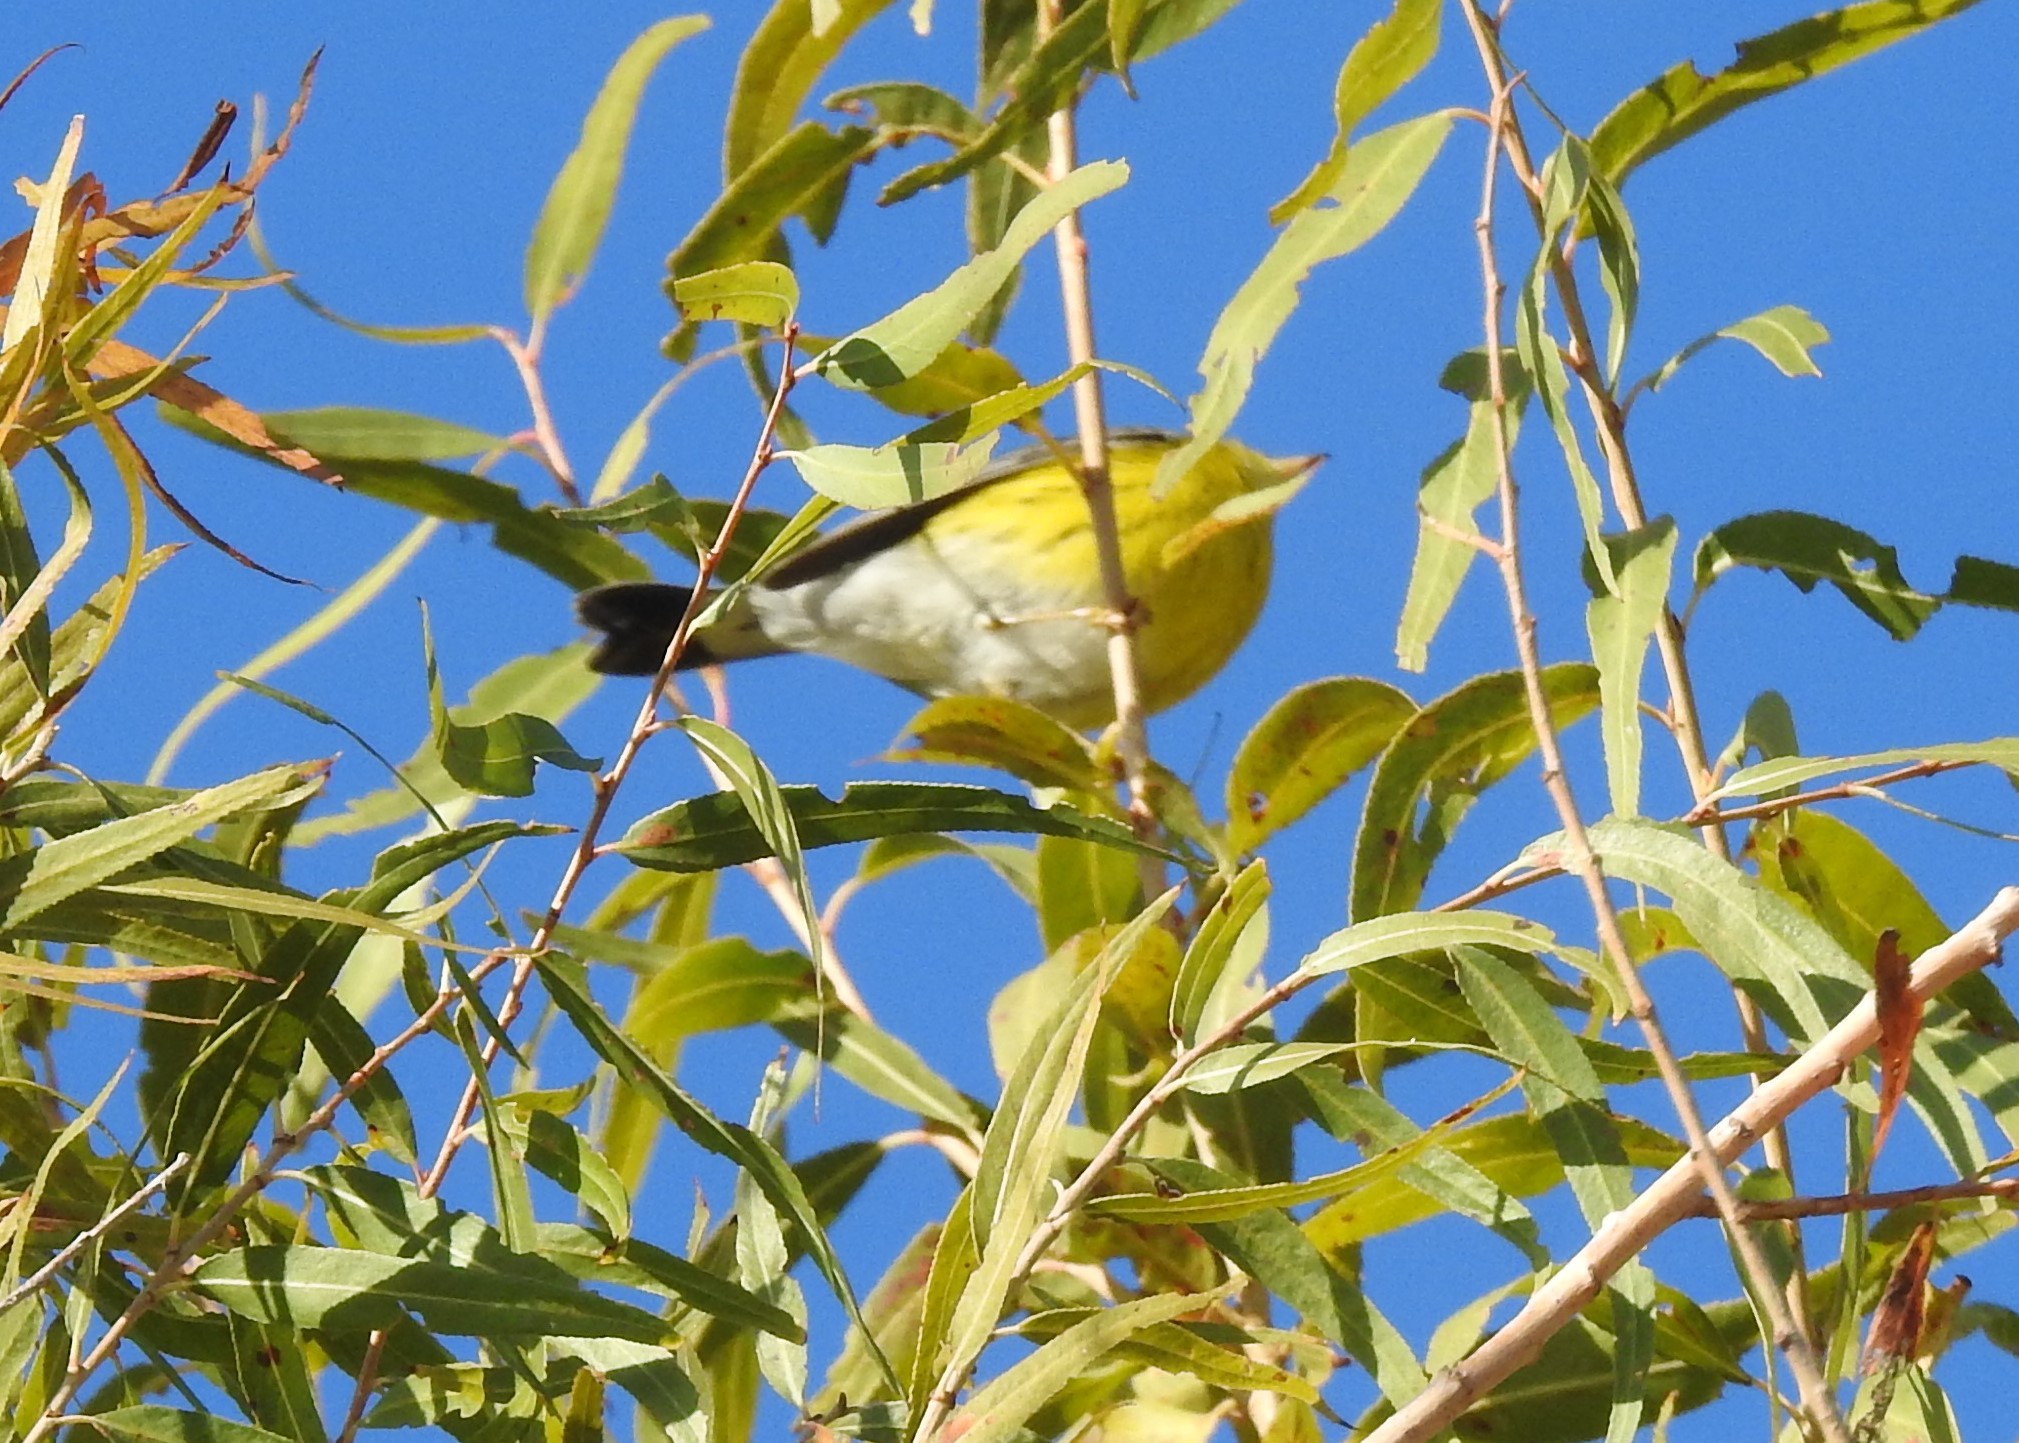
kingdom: Animalia
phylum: Chordata
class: Aves
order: Passeriformes
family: Parulidae
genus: Setophaga
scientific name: Setophaga magnolia
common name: Magnolia warbler
